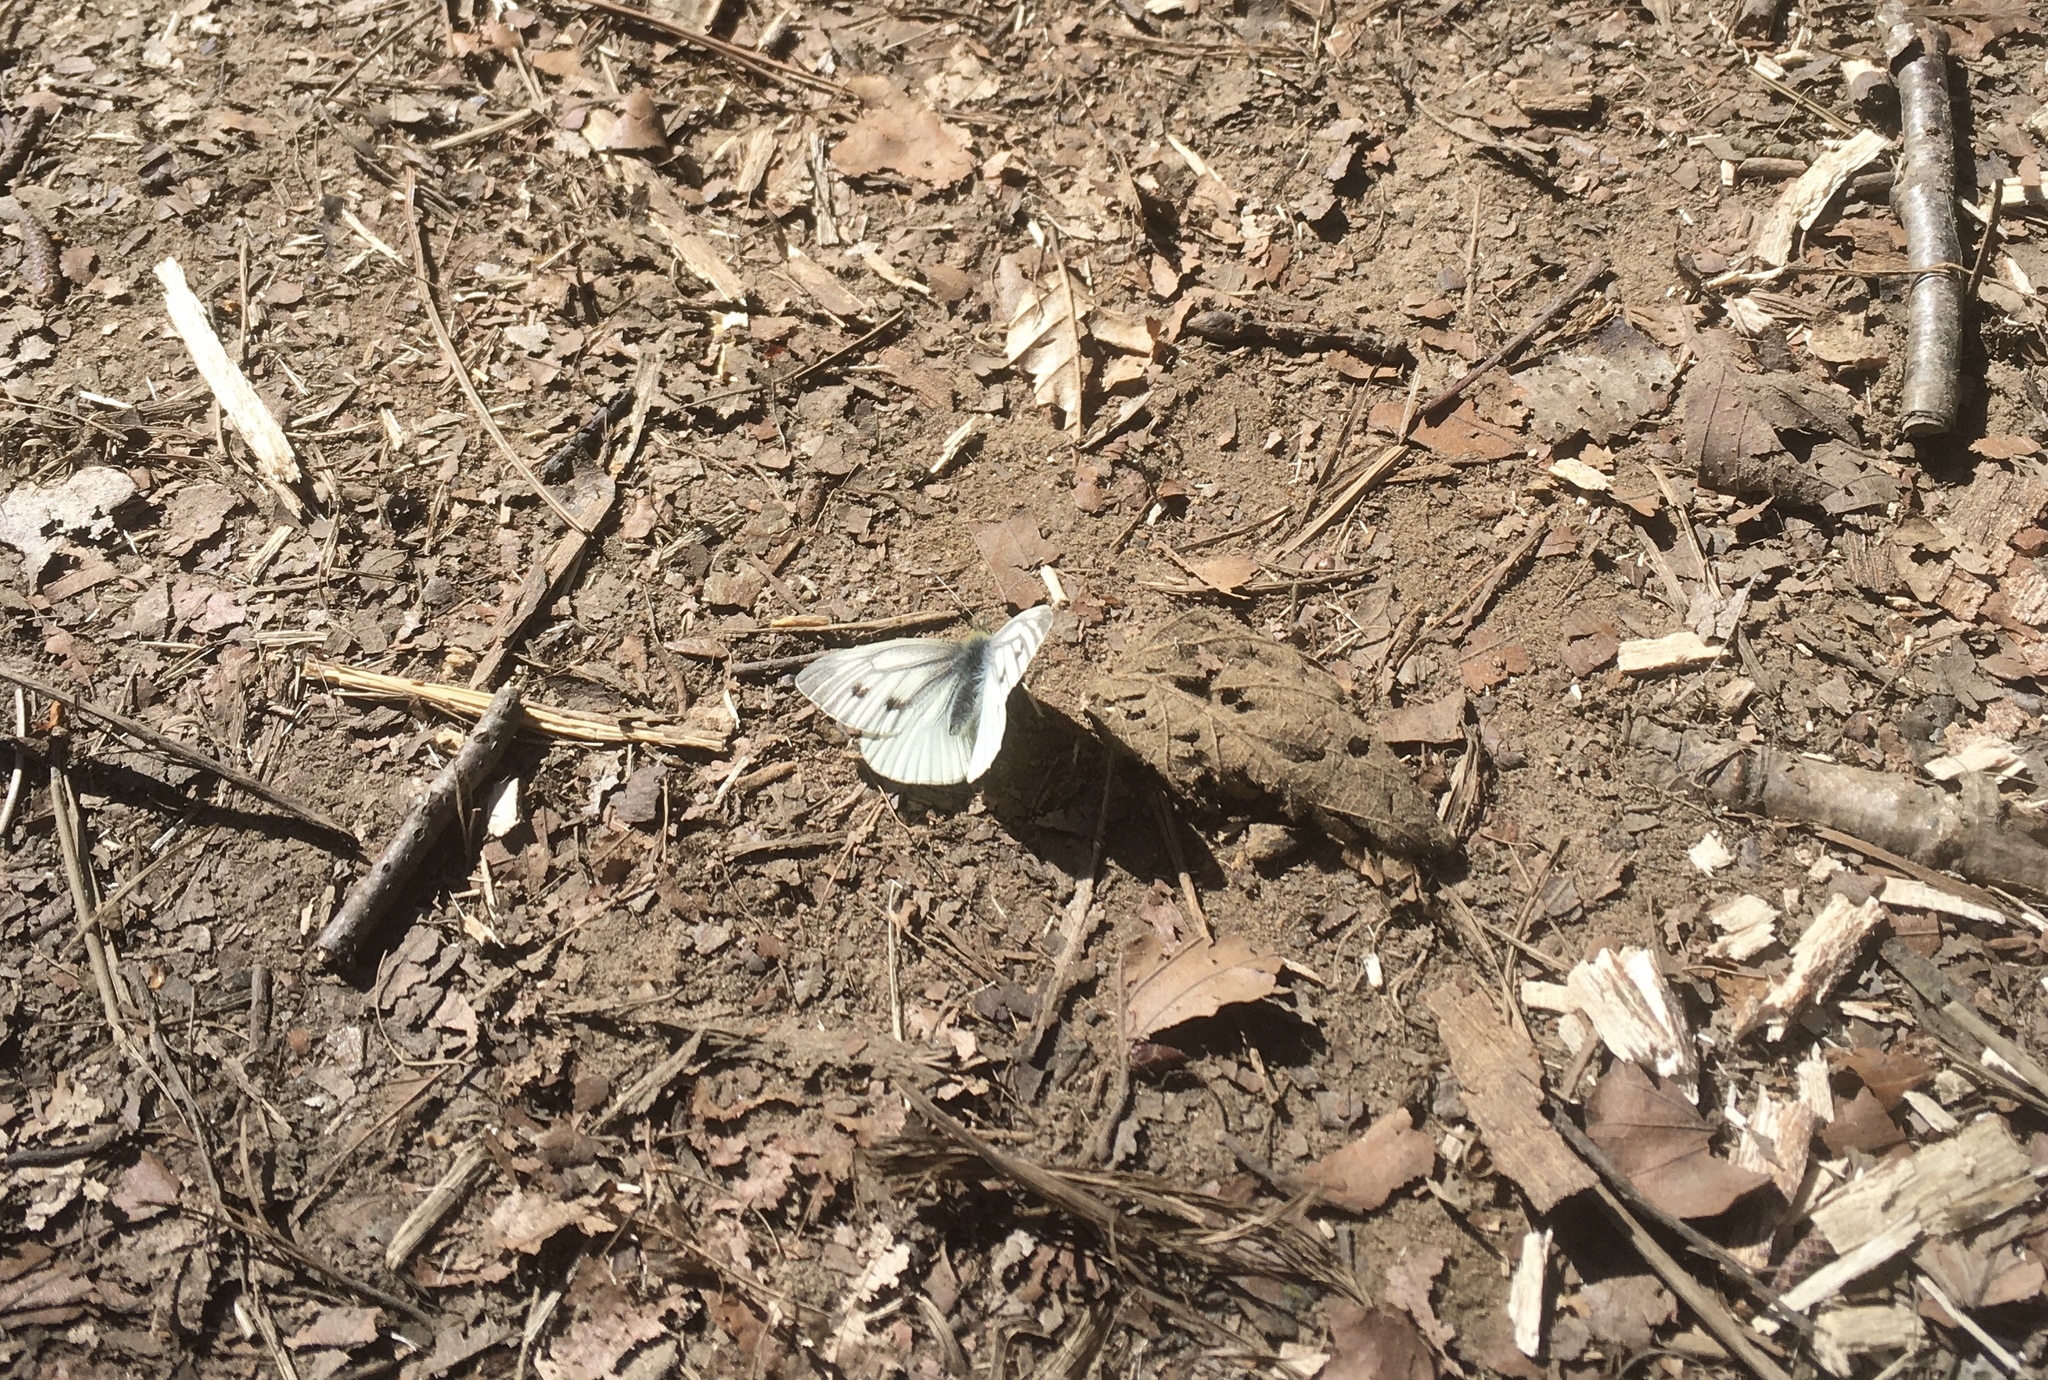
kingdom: Animalia
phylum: Arthropoda
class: Insecta
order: Lepidoptera
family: Pieridae
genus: Pieris
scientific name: Pieris napi
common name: Green-veined white
